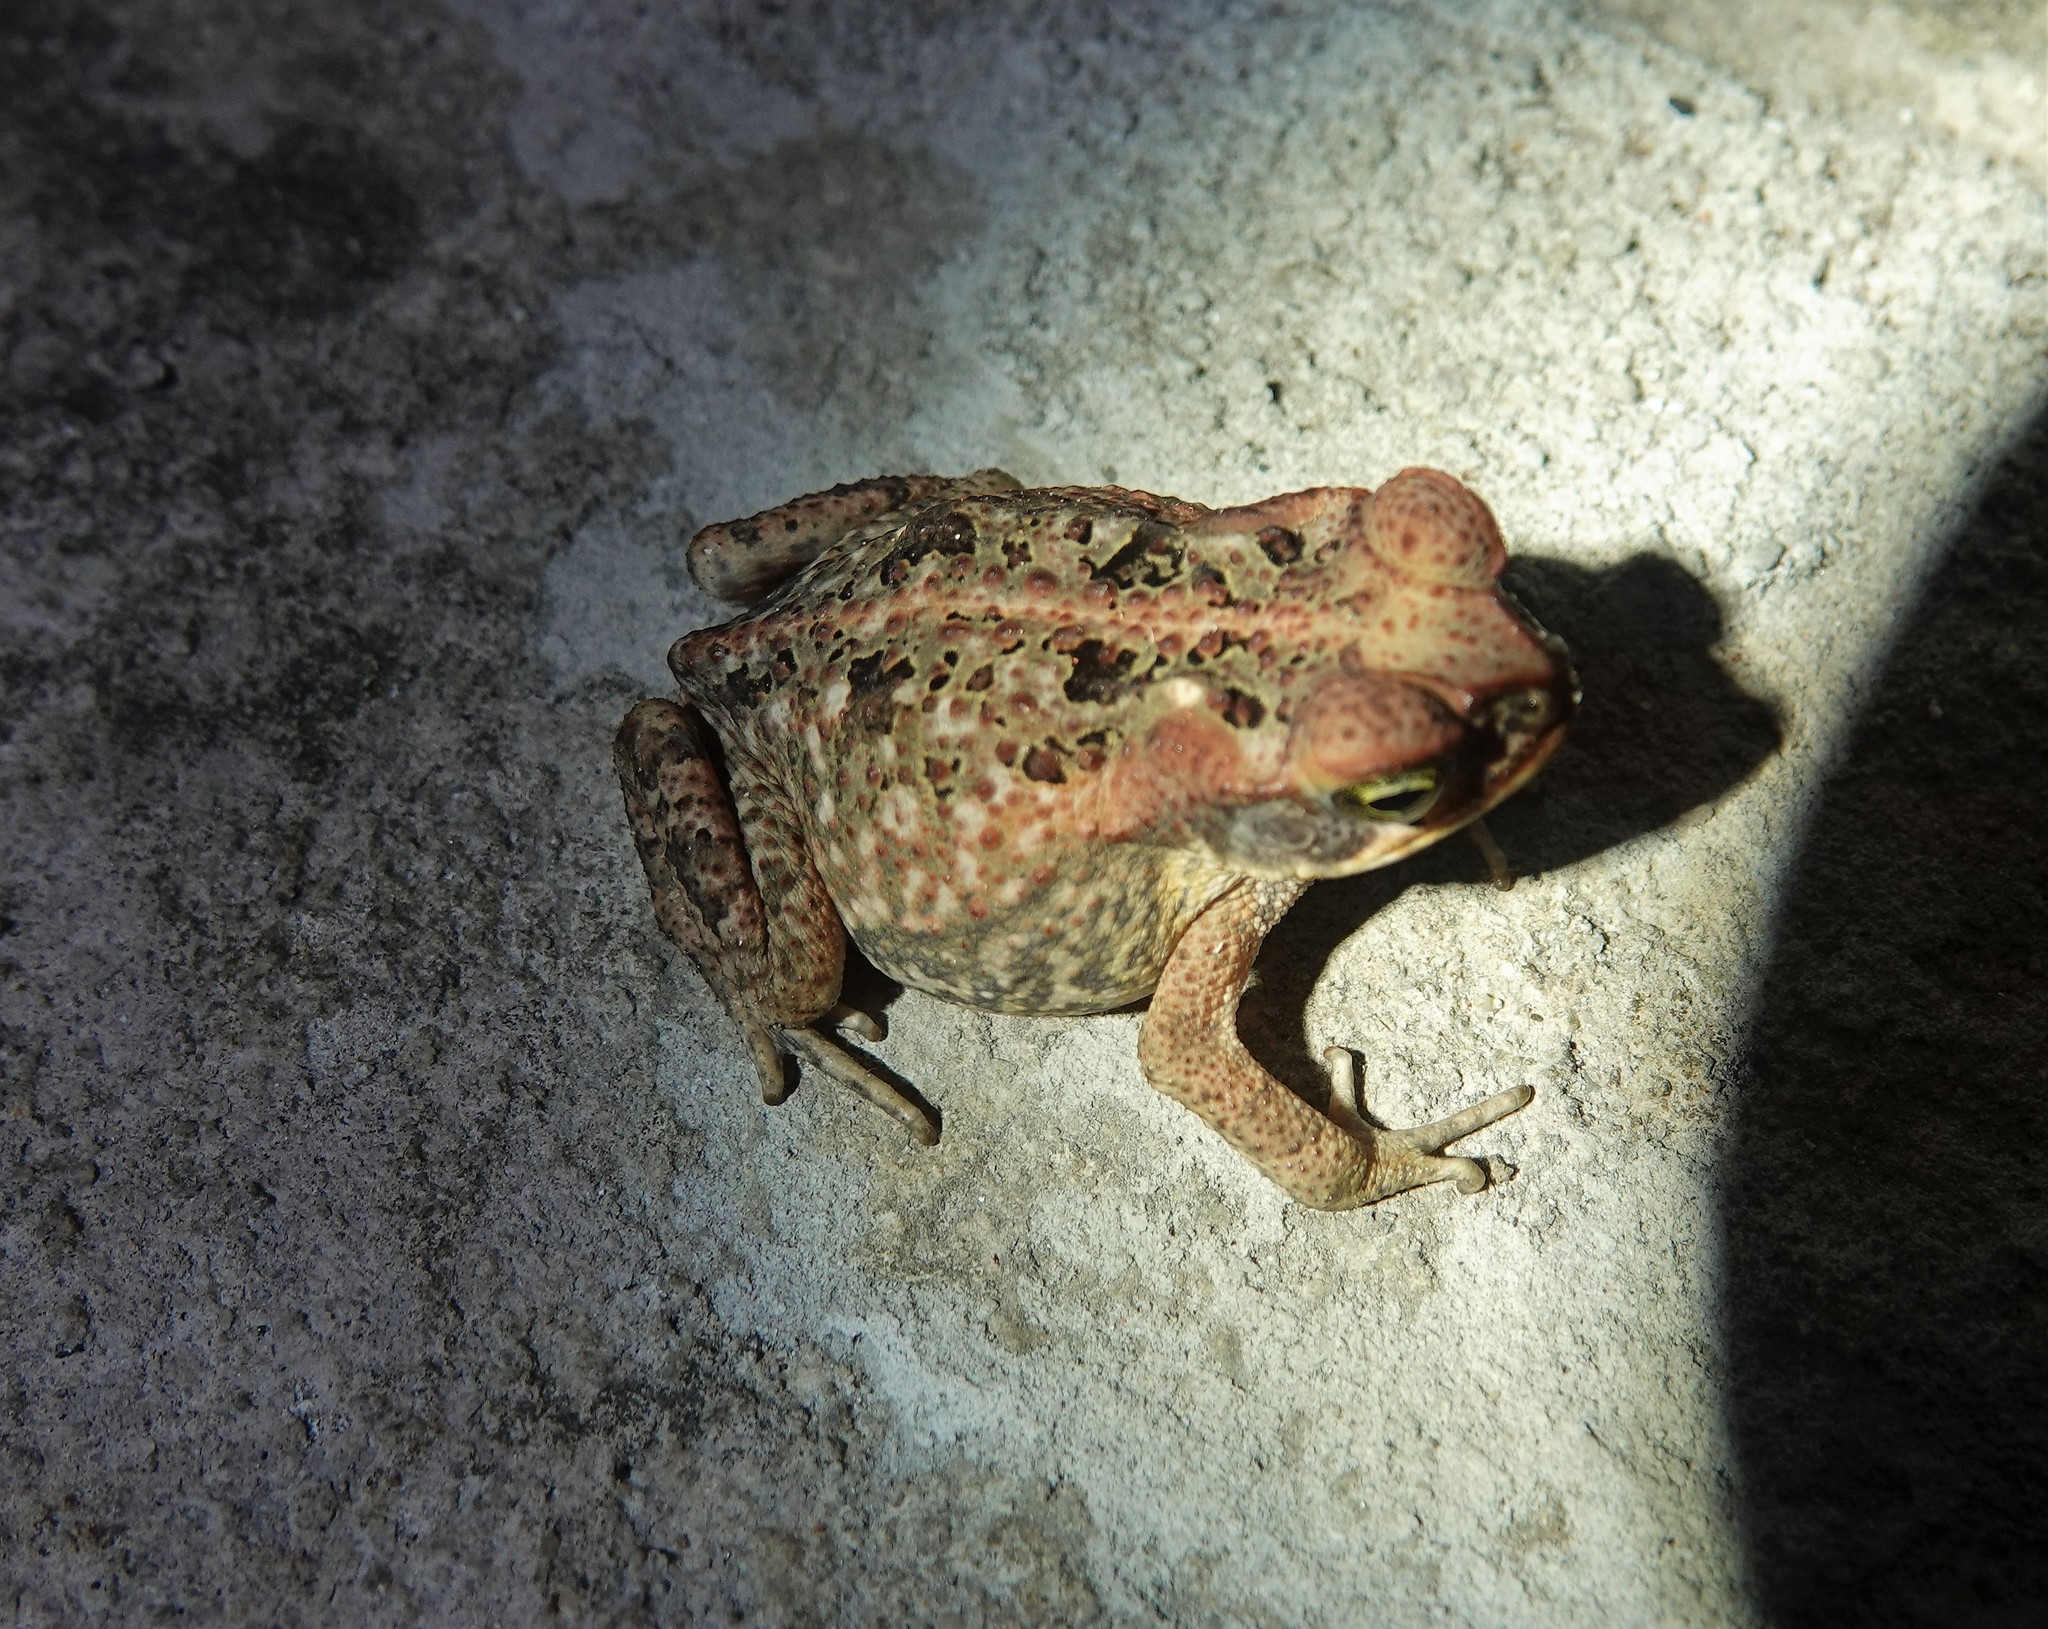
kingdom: Animalia
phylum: Chordata
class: Amphibia
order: Anura
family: Bufonidae
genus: Rhinella
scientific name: Rhinella marina
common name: Cane toad
